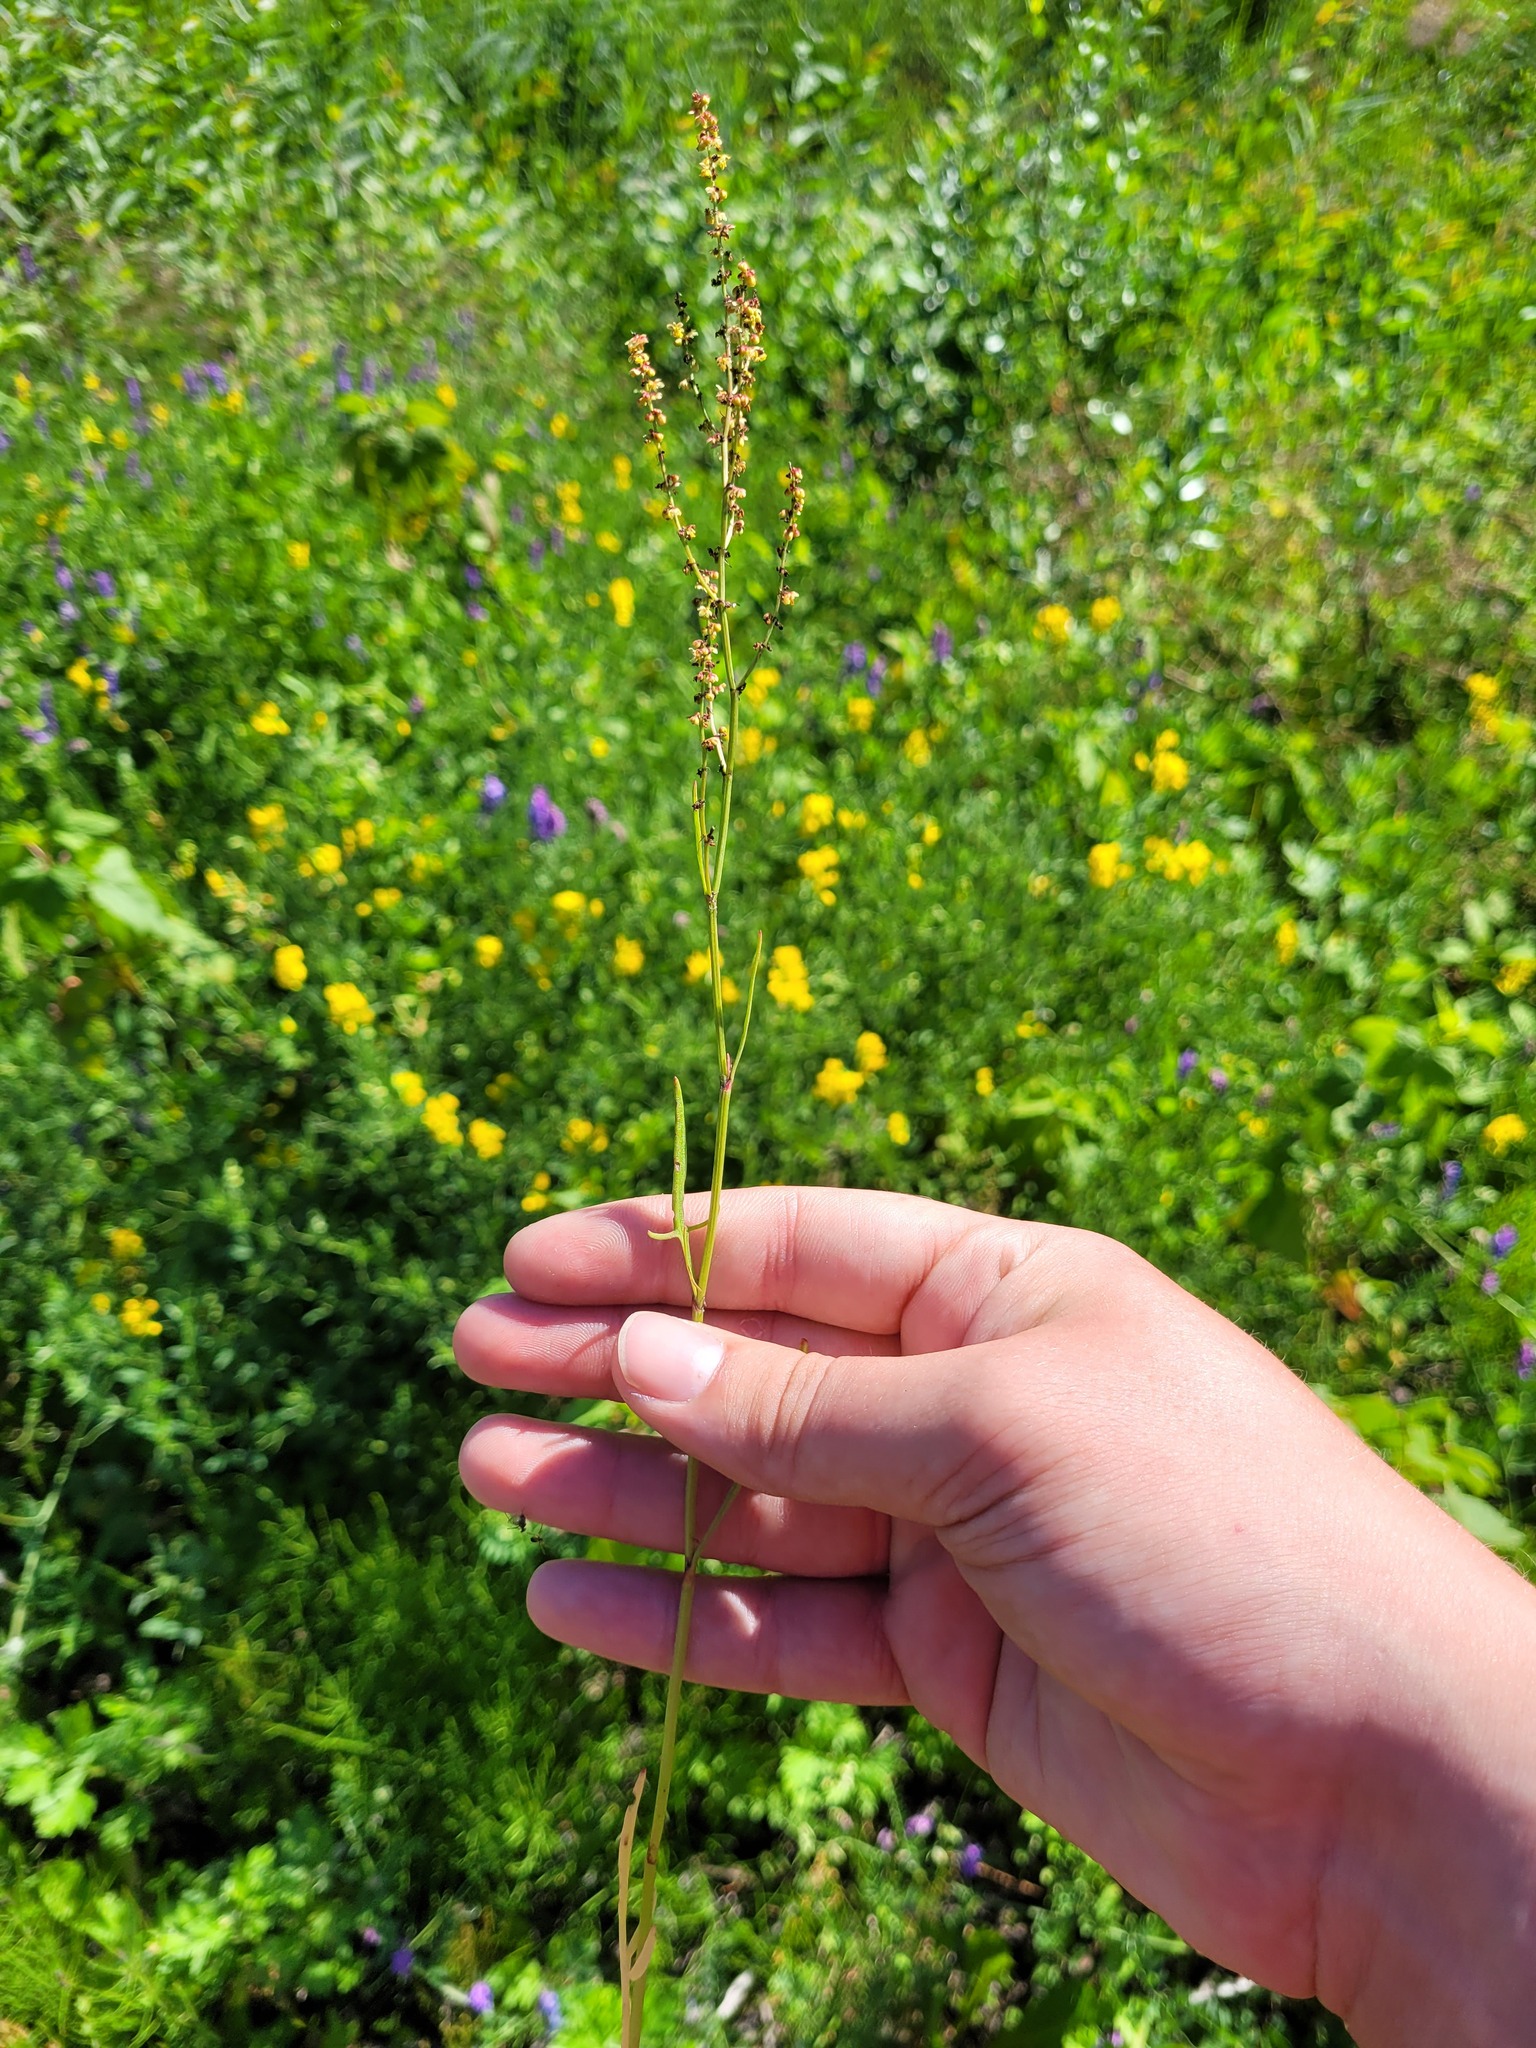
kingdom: Plantae
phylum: Tracheophyta
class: Magnoliopsida
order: Caryophyllales
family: Polygonaceae
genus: Rumex
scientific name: Rumex acetosella
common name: Common sheep sorrel
